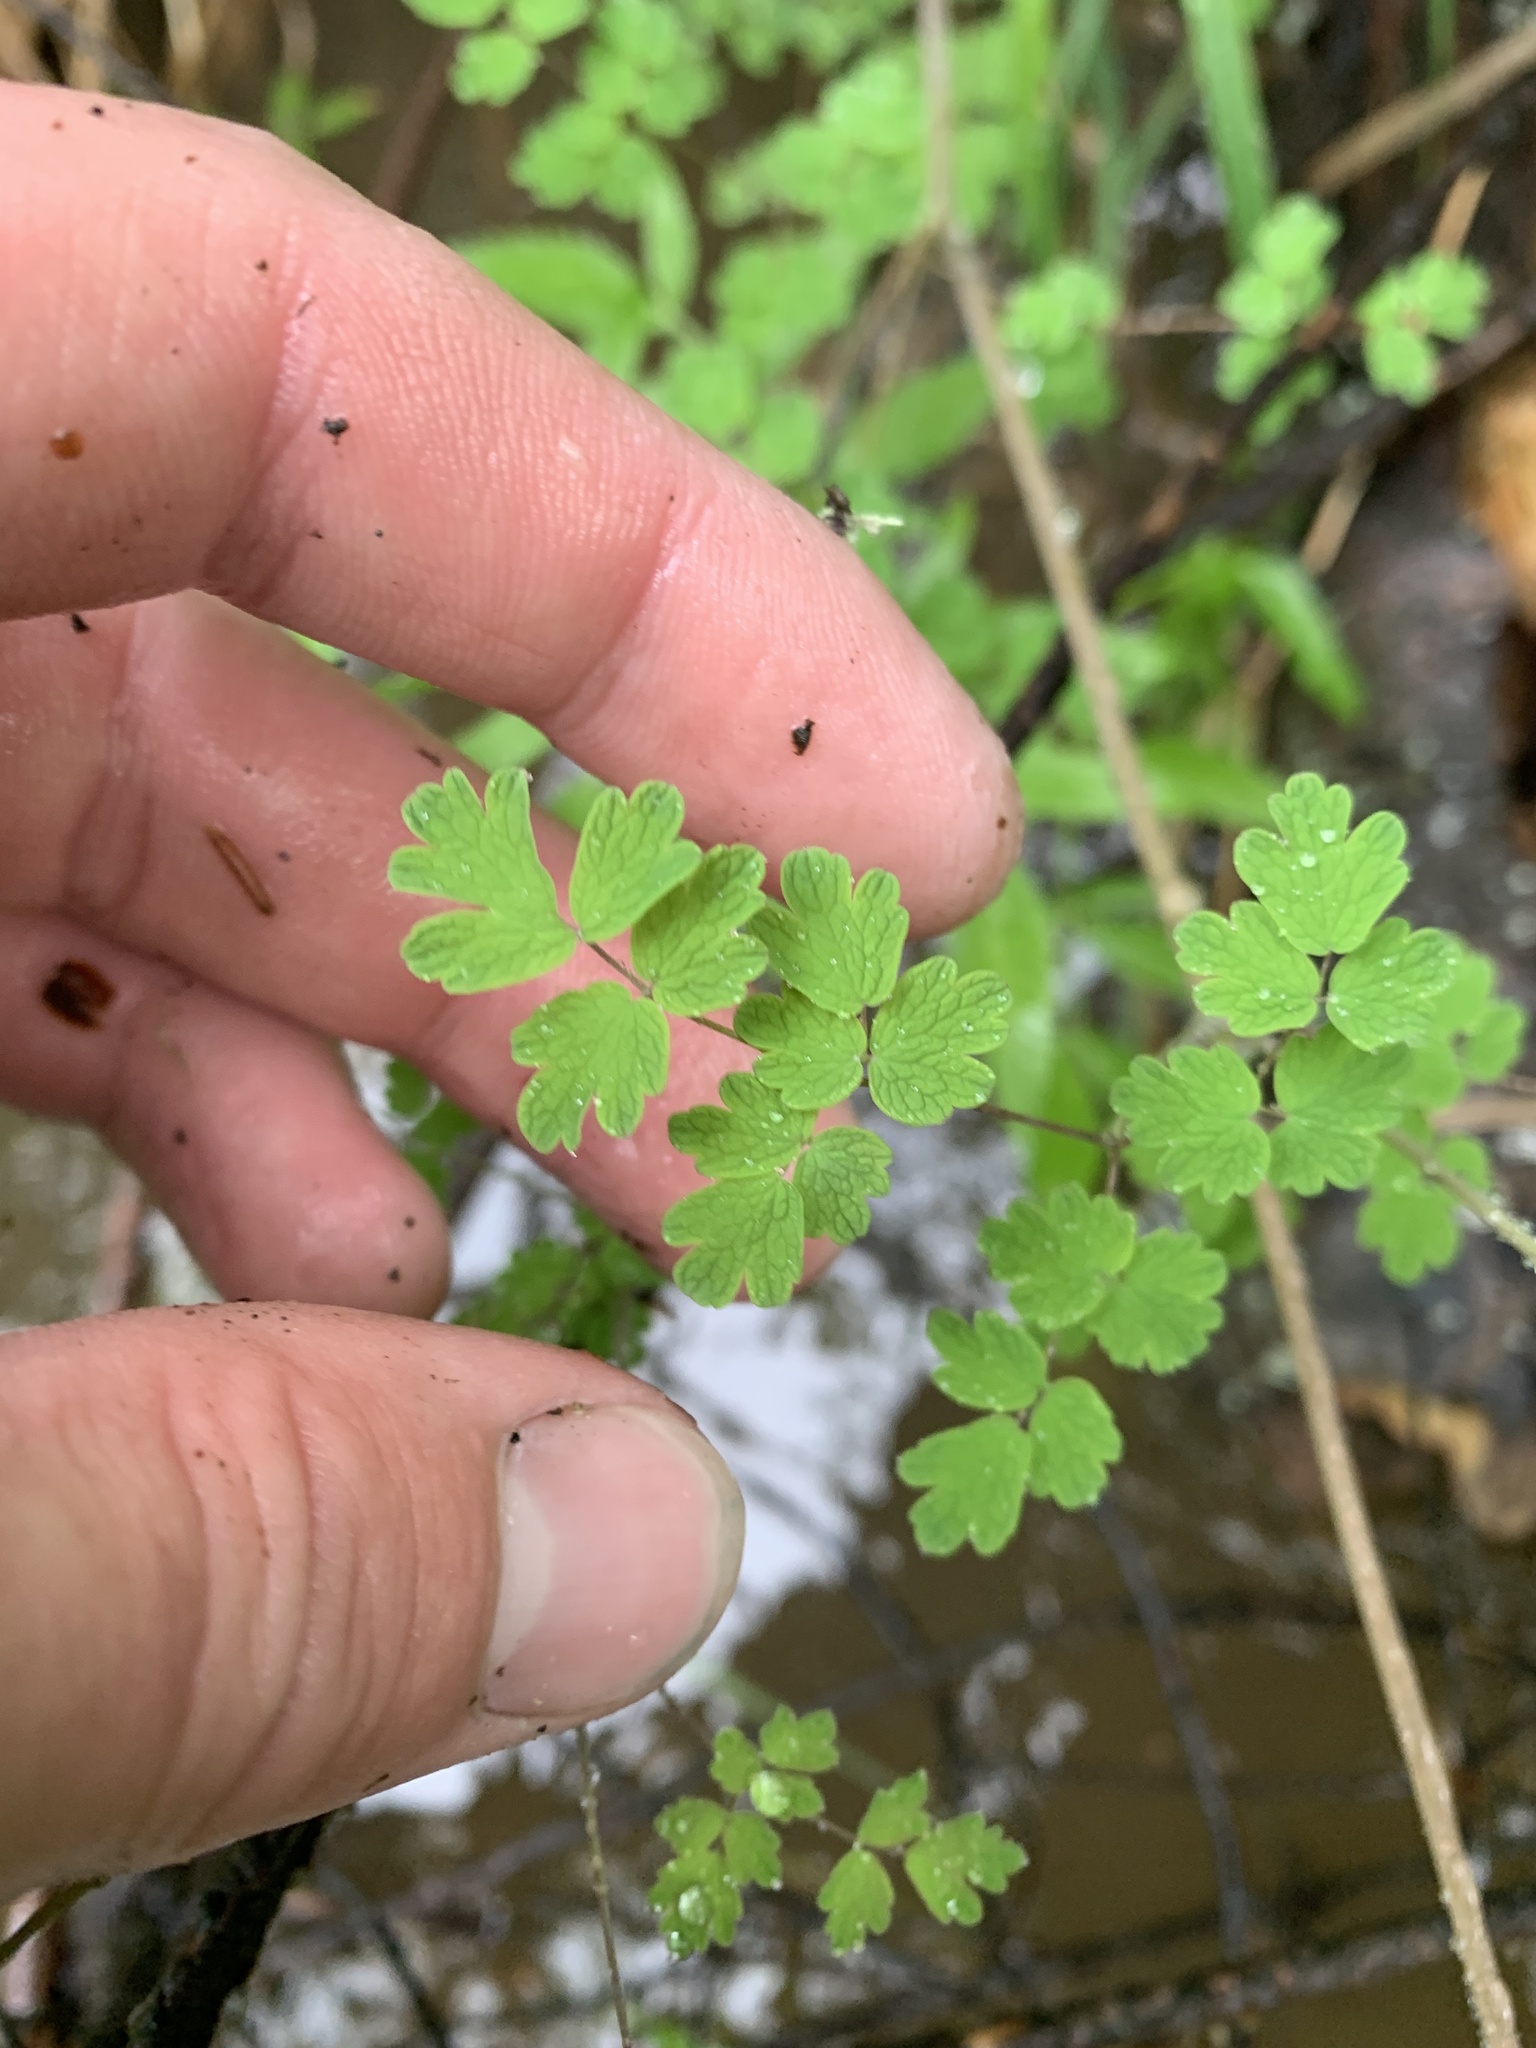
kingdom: Plantae
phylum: Tracheophyta
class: Magnoliopsida
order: Ranunculales
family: Ranunculaceae
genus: Thalictrum
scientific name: Thalictrum sparsiflorum
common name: Mountain meadow-rue
